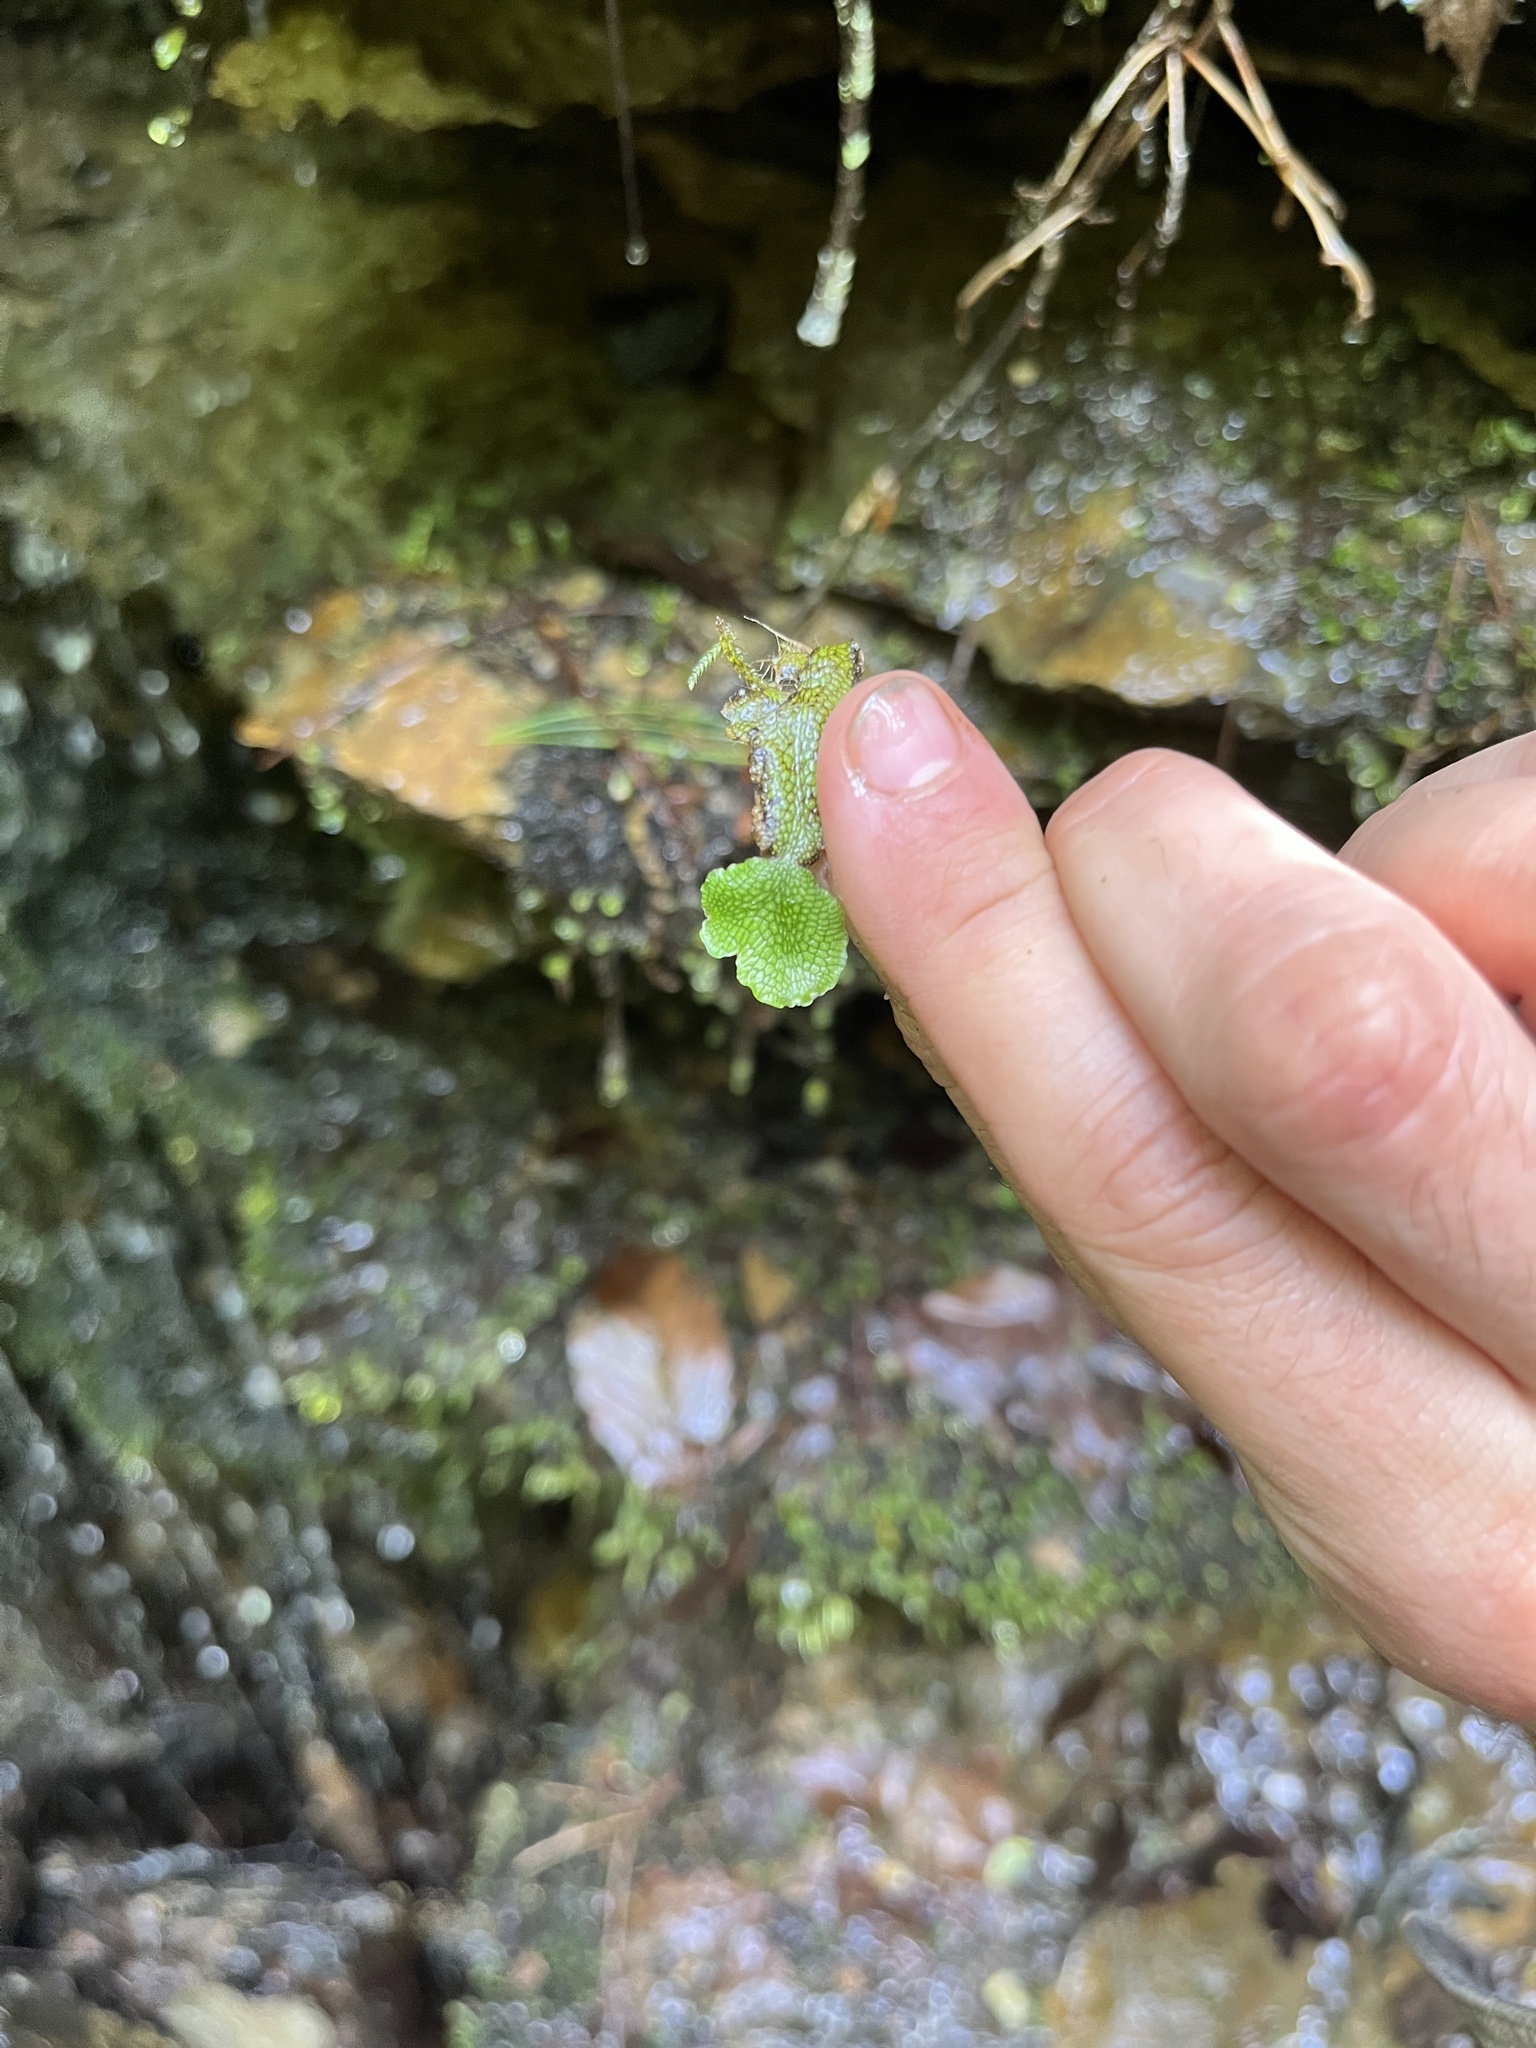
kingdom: Plantae
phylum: Marchantiophyta
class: Marchantiopsida
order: Marchantiales
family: Conocephalaceae
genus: Conocephalum
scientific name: Conocephalum salebrosum
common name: Cat-tongue liverwort
